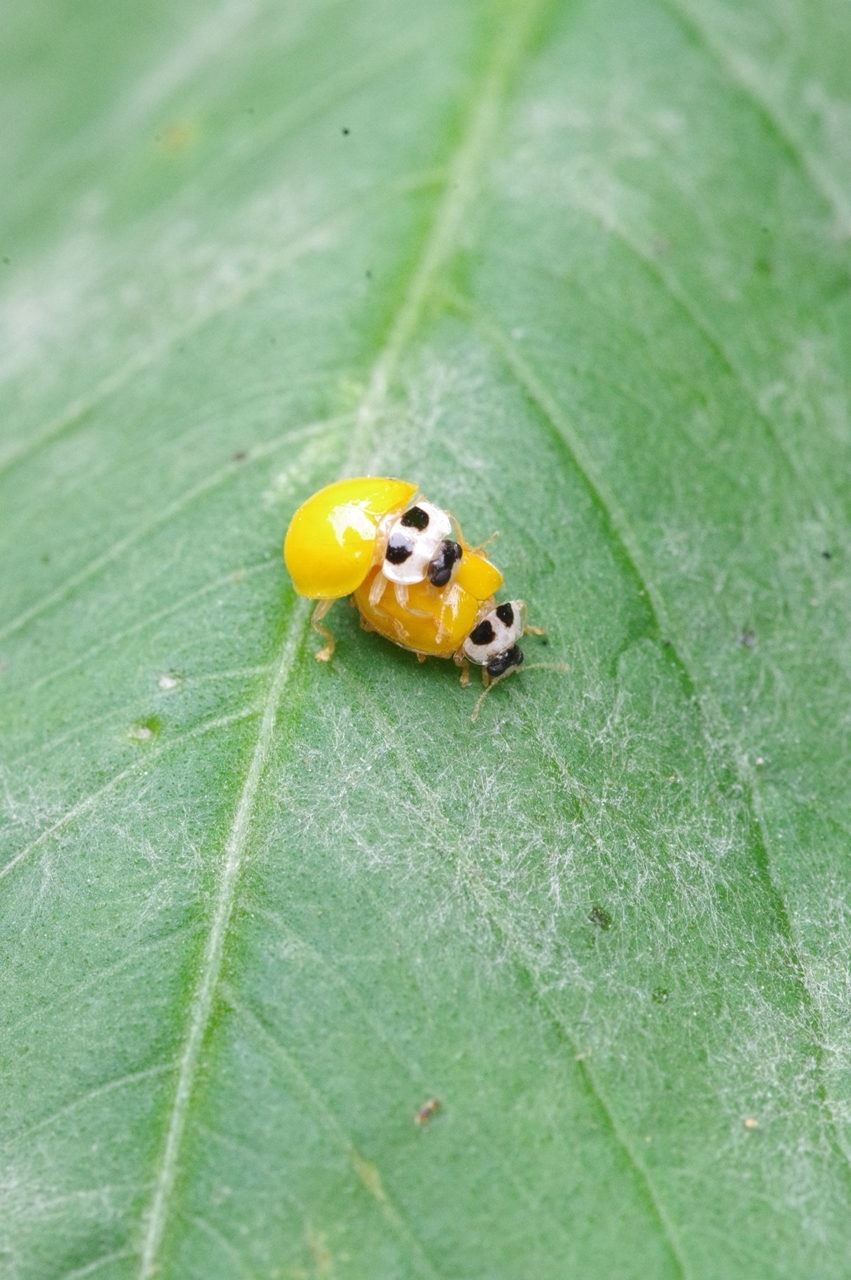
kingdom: Animalia
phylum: Arthropoda
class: Insecta
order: Coleoptera
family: Coccinellidae
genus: Illeis
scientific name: Illeis koebelei
